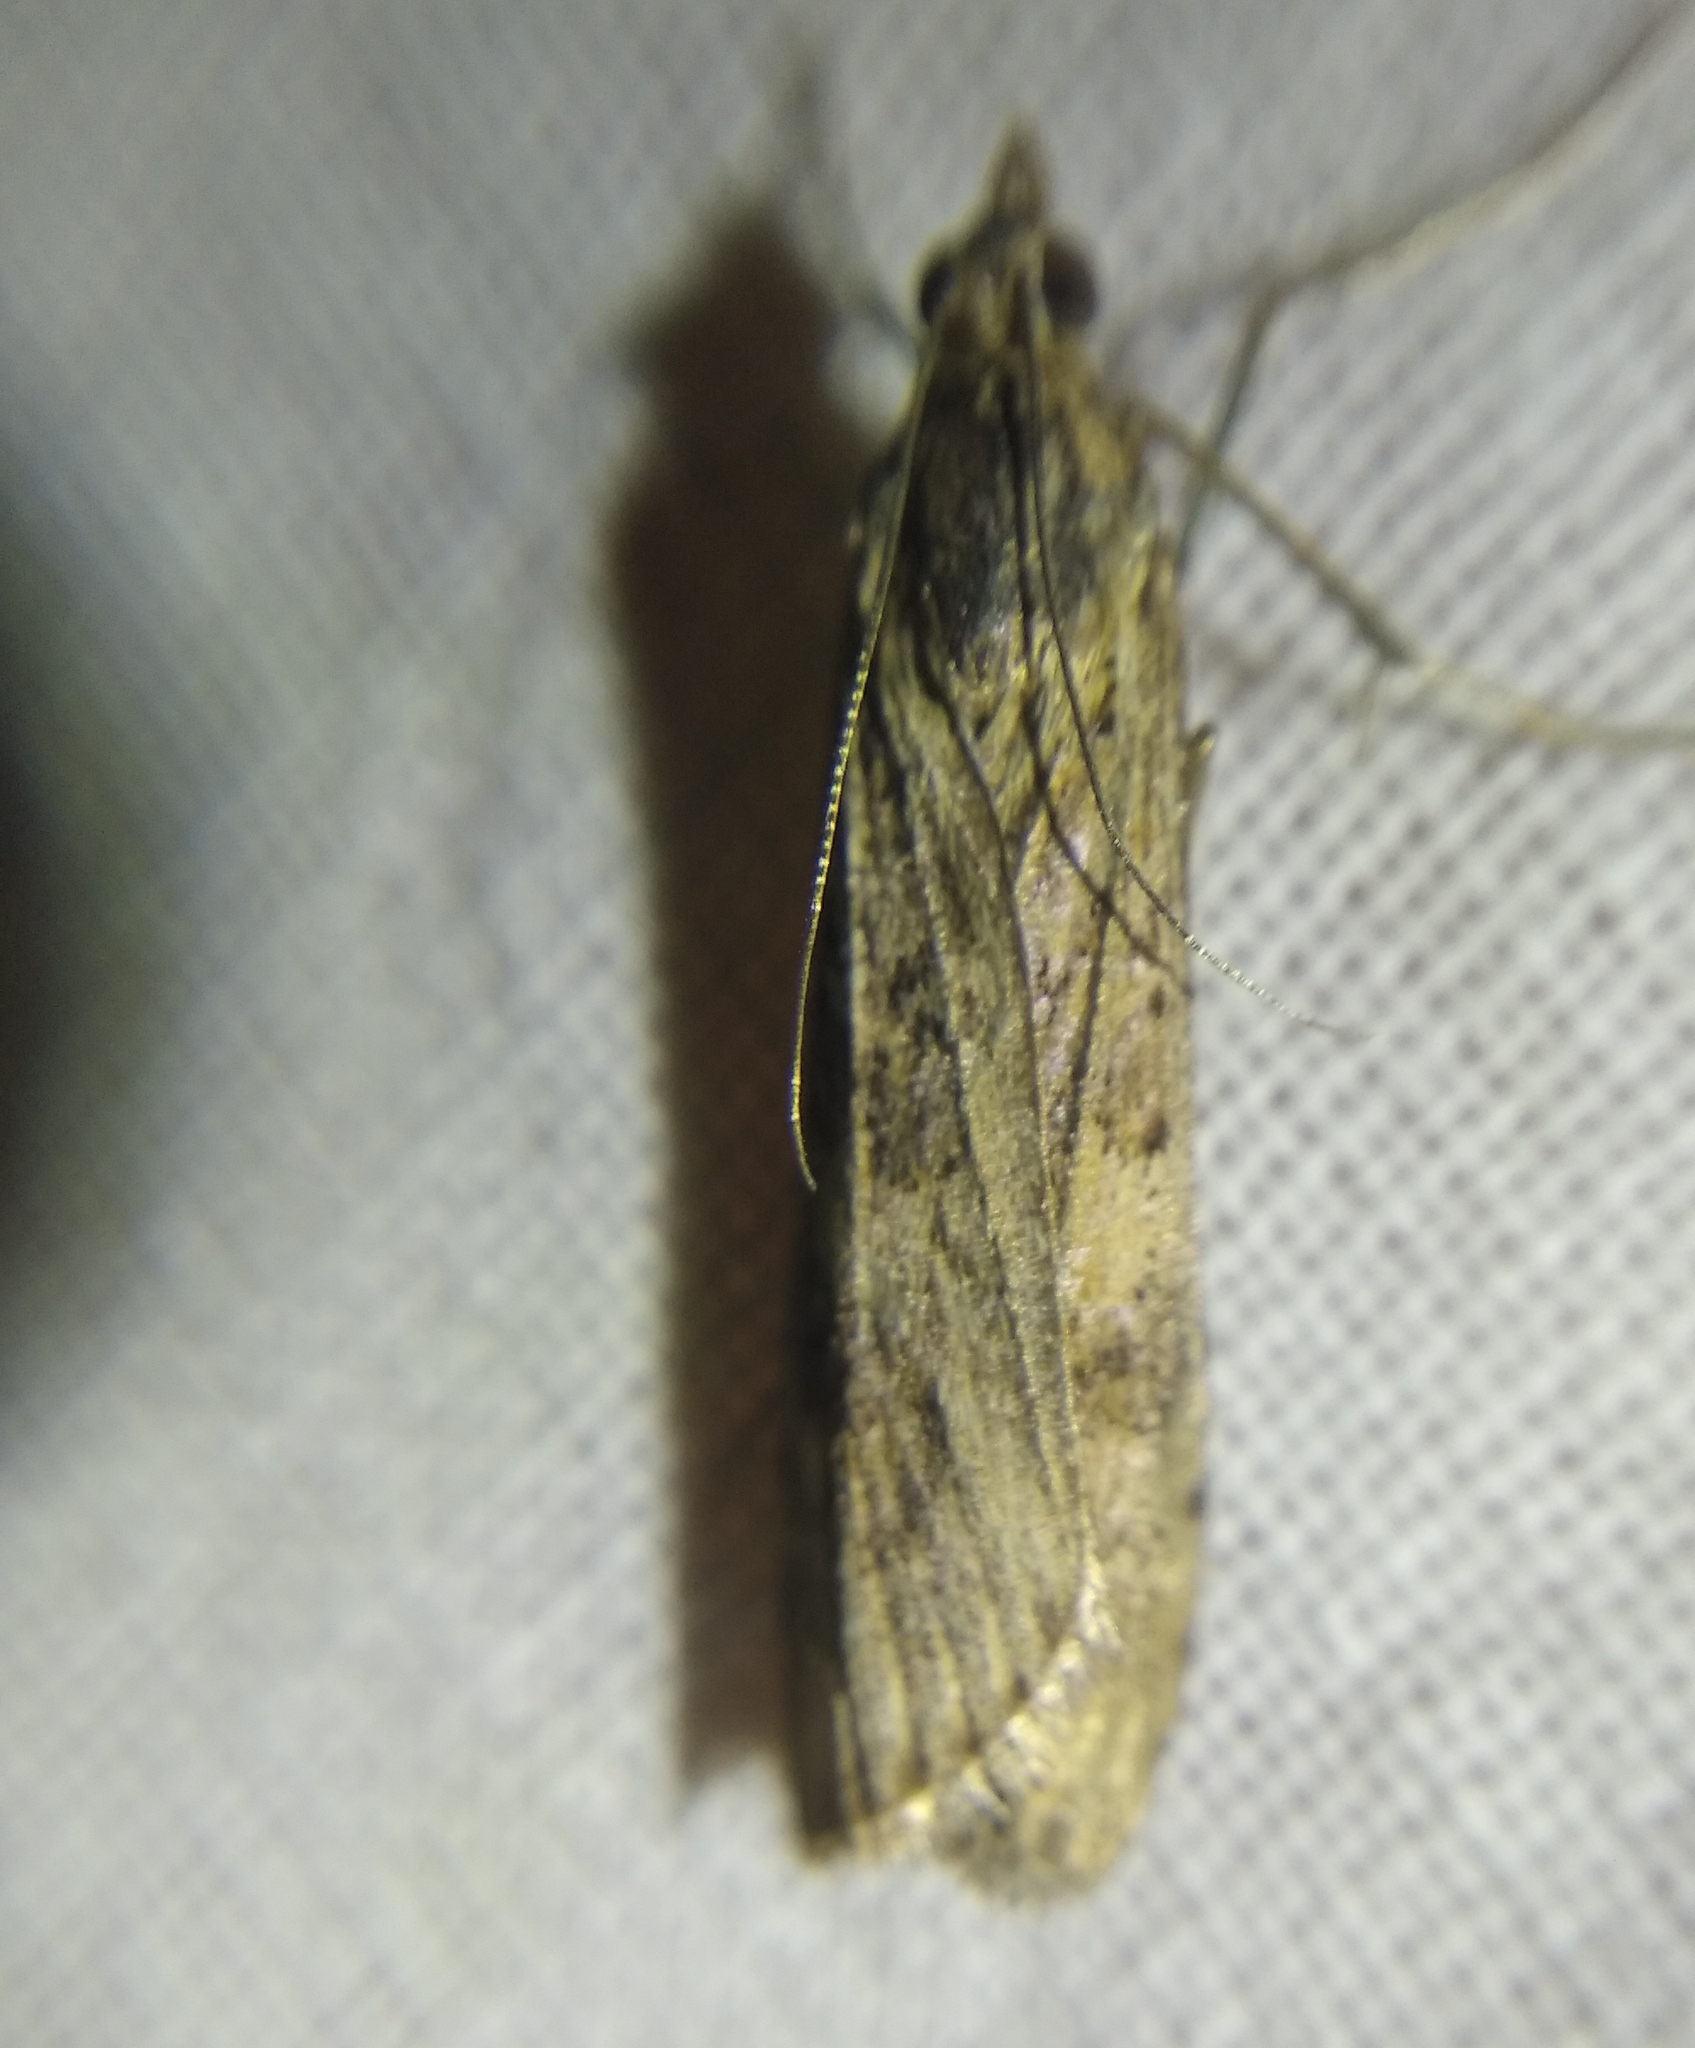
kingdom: Animalia
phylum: Arthropoda
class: Insecta
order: Lepidoptera
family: Crambidae
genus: Nomophila
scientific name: Nomophila noctuella
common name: Rush veneer
